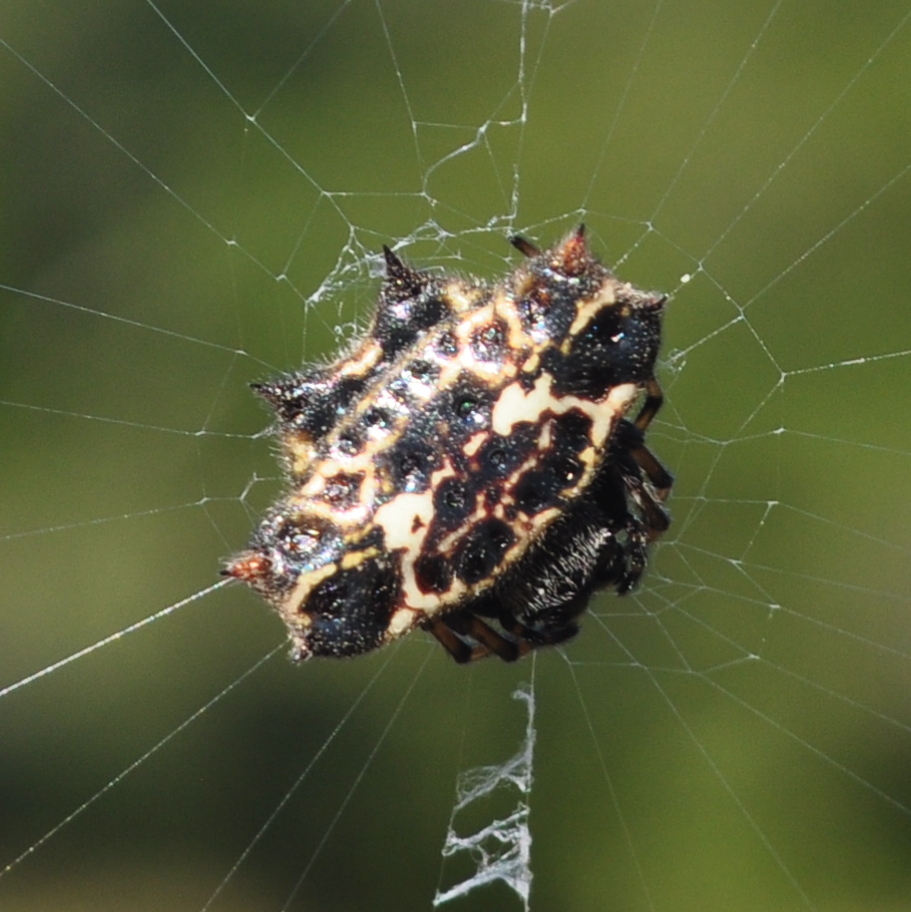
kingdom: Animalia
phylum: Arthropoda
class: Arachnida
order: Araneae
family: Araneidae
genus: Gasteracantha
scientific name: Gasteracantha cancriformis
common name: Orb weavers
